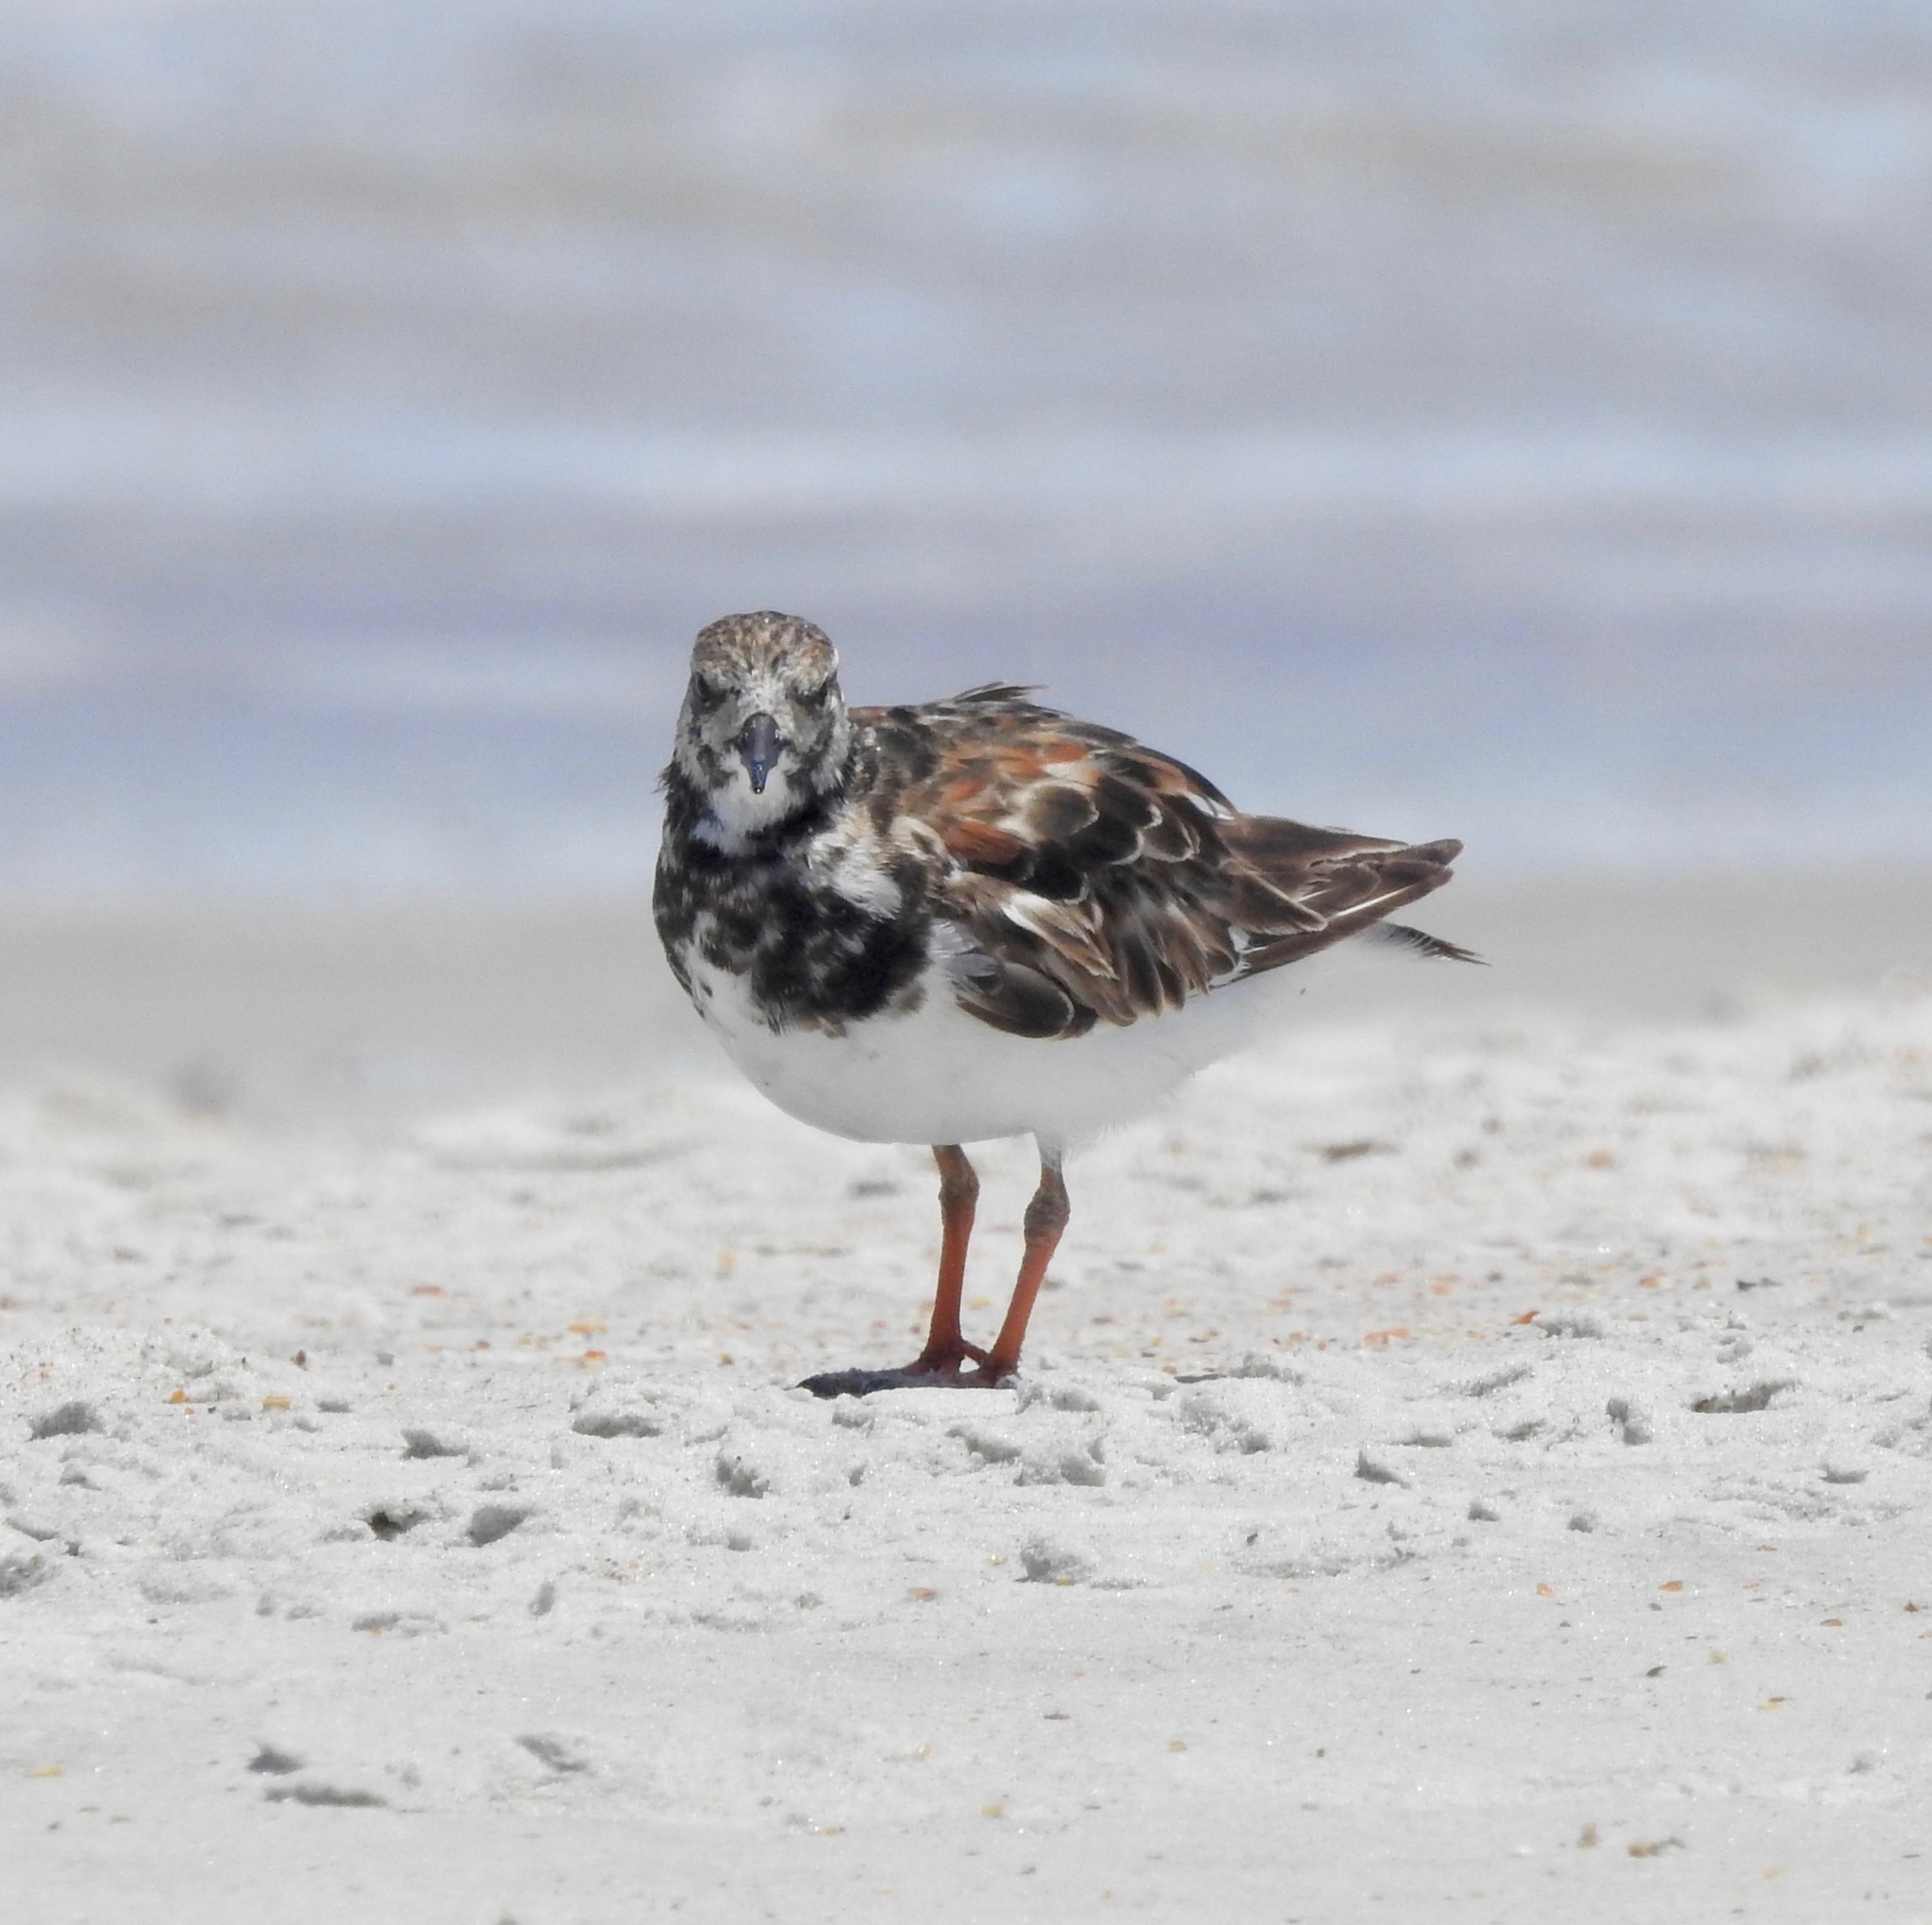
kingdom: Animalia
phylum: Chordata
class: Aves
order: Charadriiformes
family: Scolopacidae
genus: Arenaria
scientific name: Arenaria interpres
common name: Ruddy turnstone
